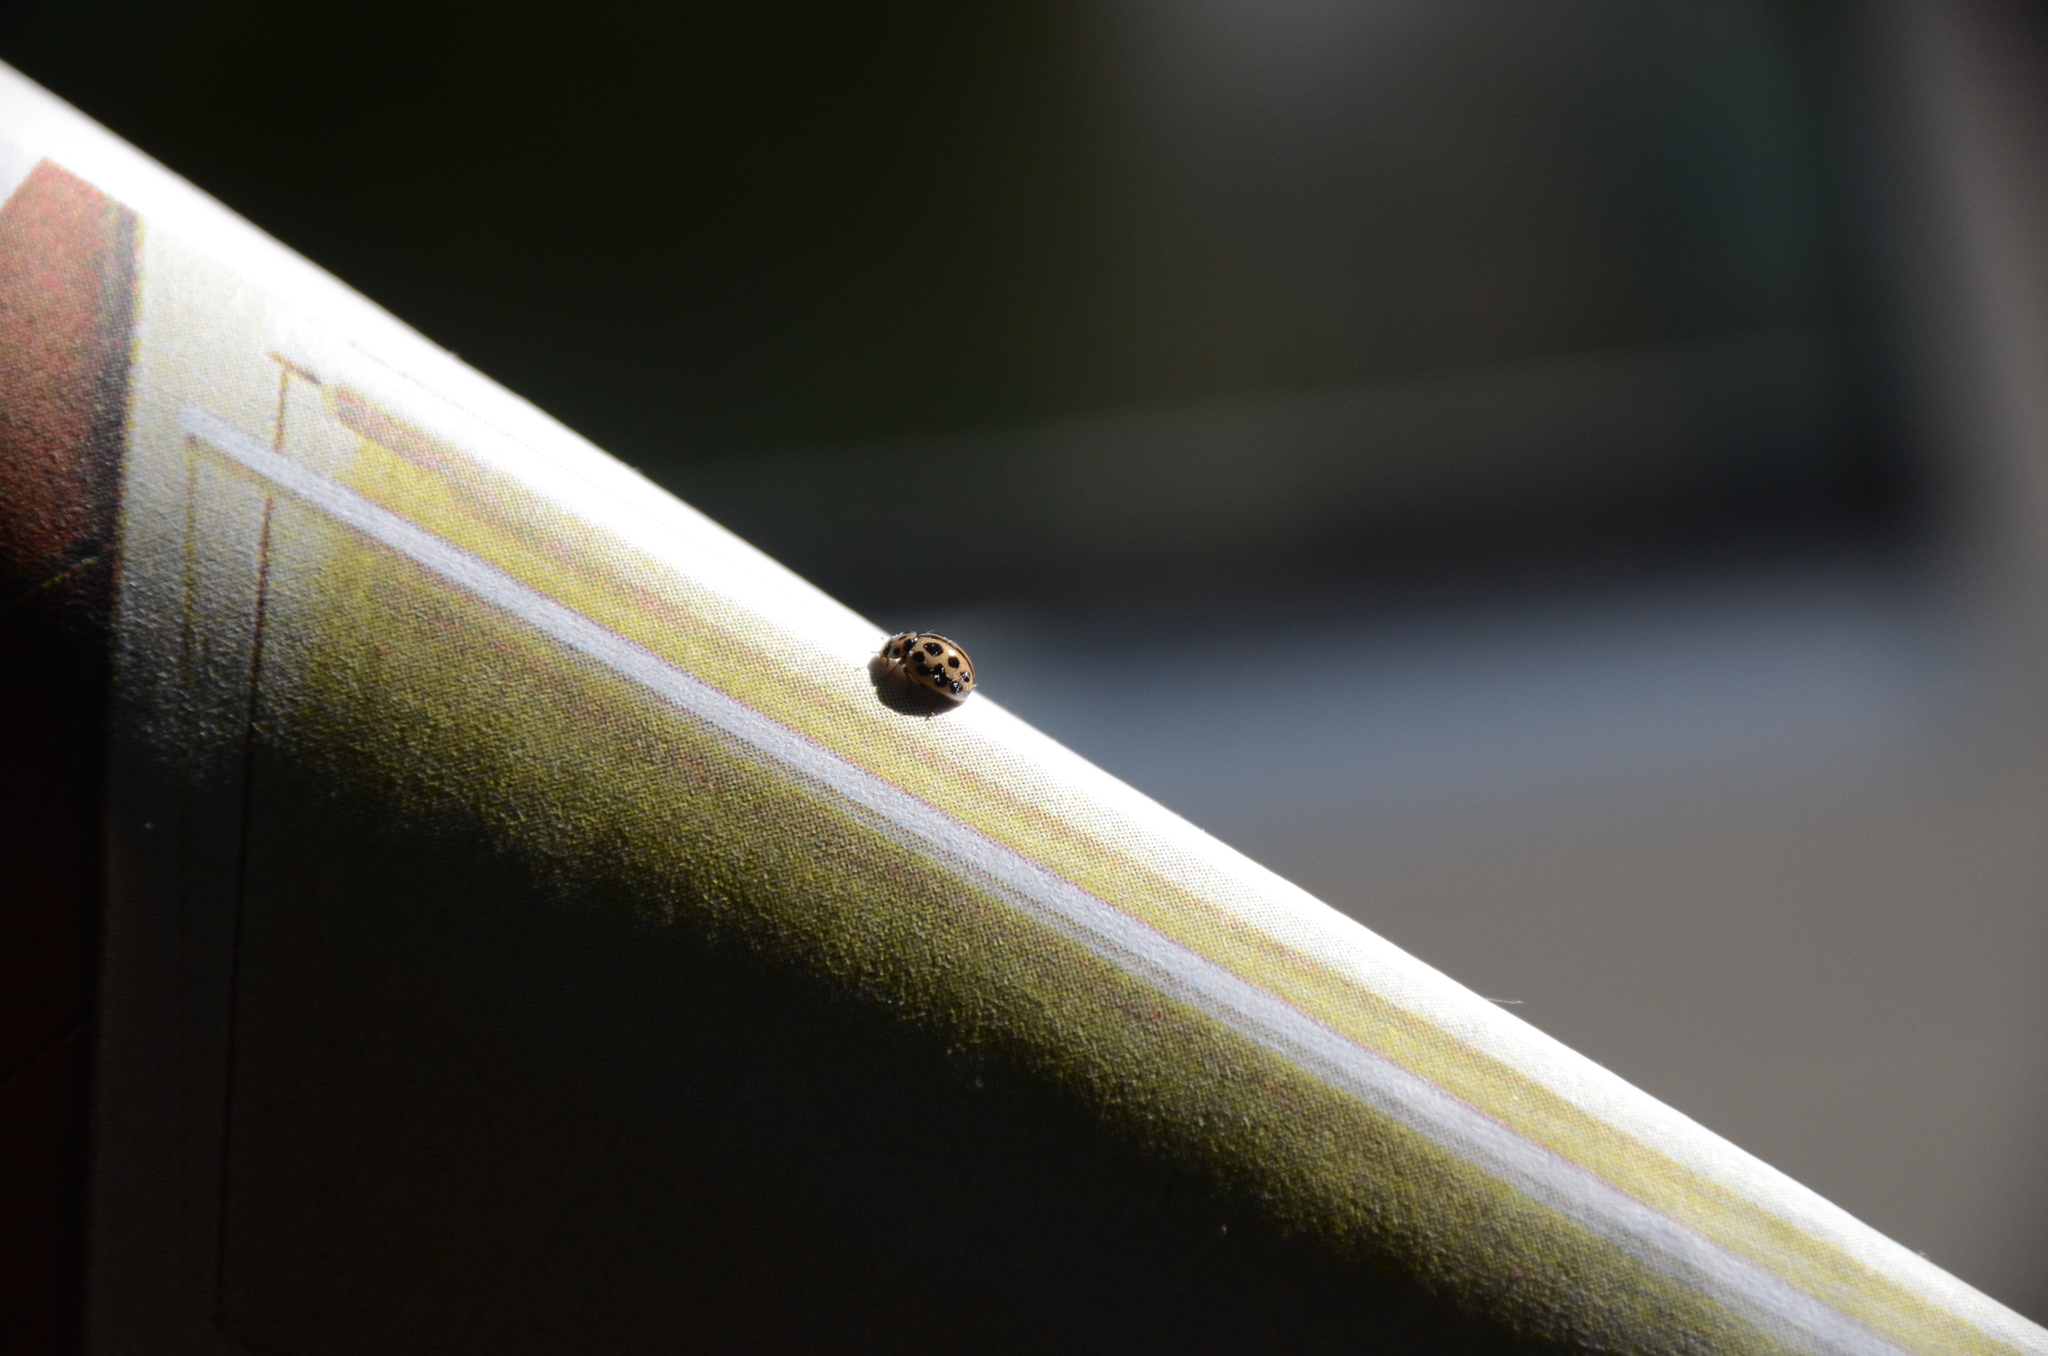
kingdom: Animalia
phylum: Arthropoda
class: Insecta
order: Coleoptera
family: Coccinellidae
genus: Tytthaspis
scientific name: Tytthaspis sedecimpunctata
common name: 16-spot ladybird
